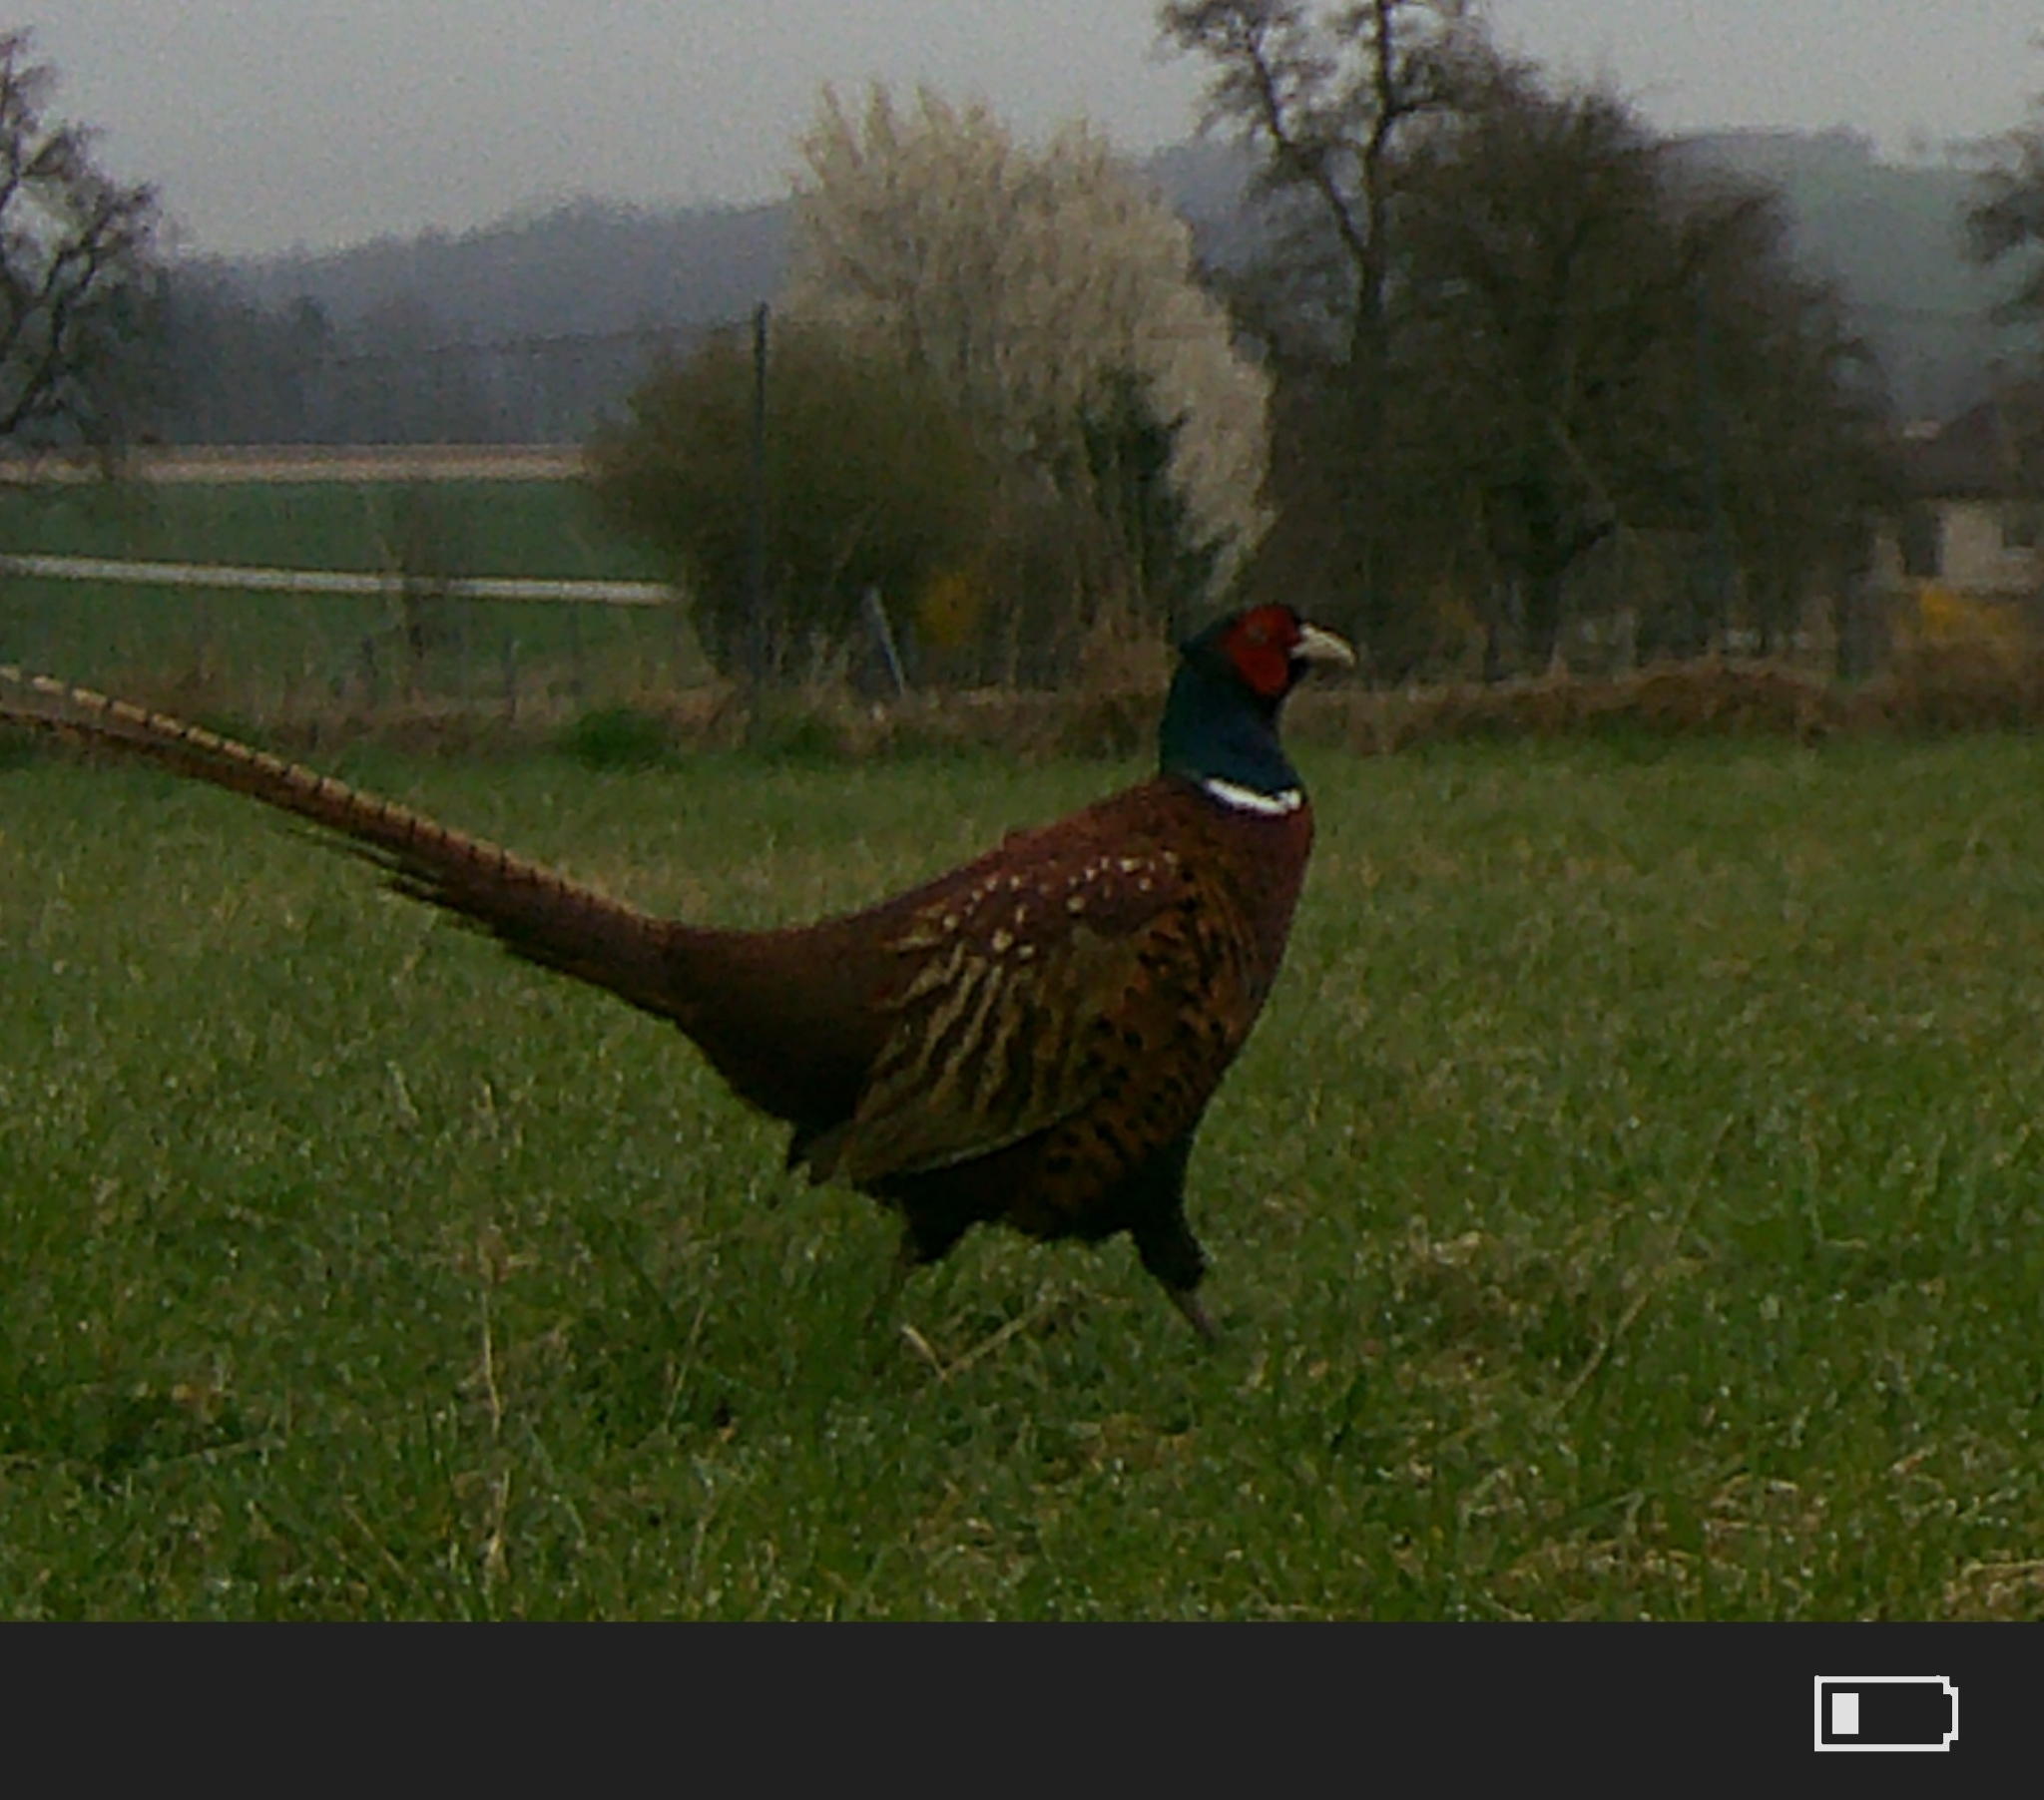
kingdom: Animalia
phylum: Chordata
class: Aves
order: Galliformes
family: Phasianidae
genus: Phasianus
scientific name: Phasianus colchicus
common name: Common pheasant
